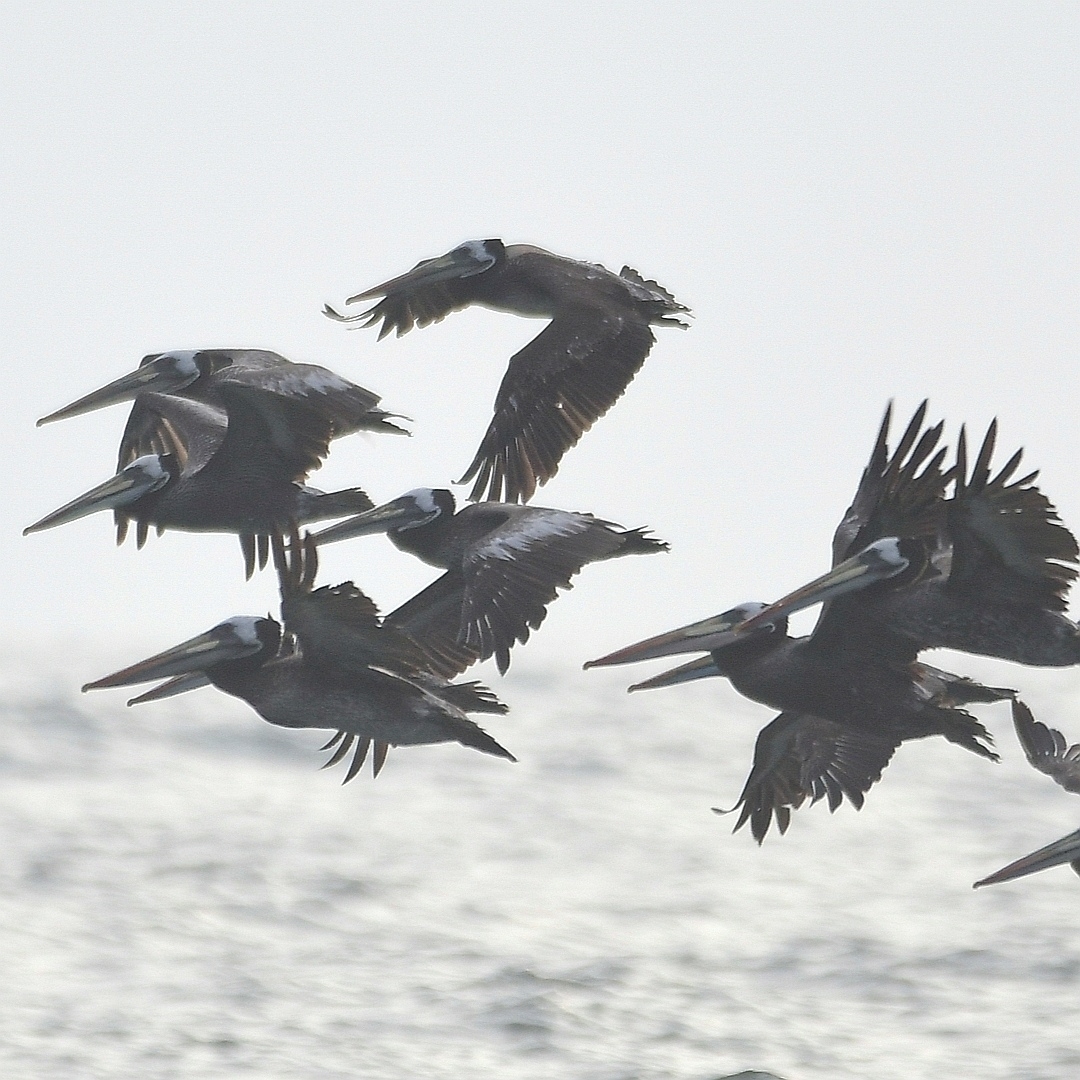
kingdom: Animalia
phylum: Chordata
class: Aves
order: Pelecaniformes
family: Pelecanidae
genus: Pelecanus
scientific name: Pelecanus thagus
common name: Peruvian pelican
